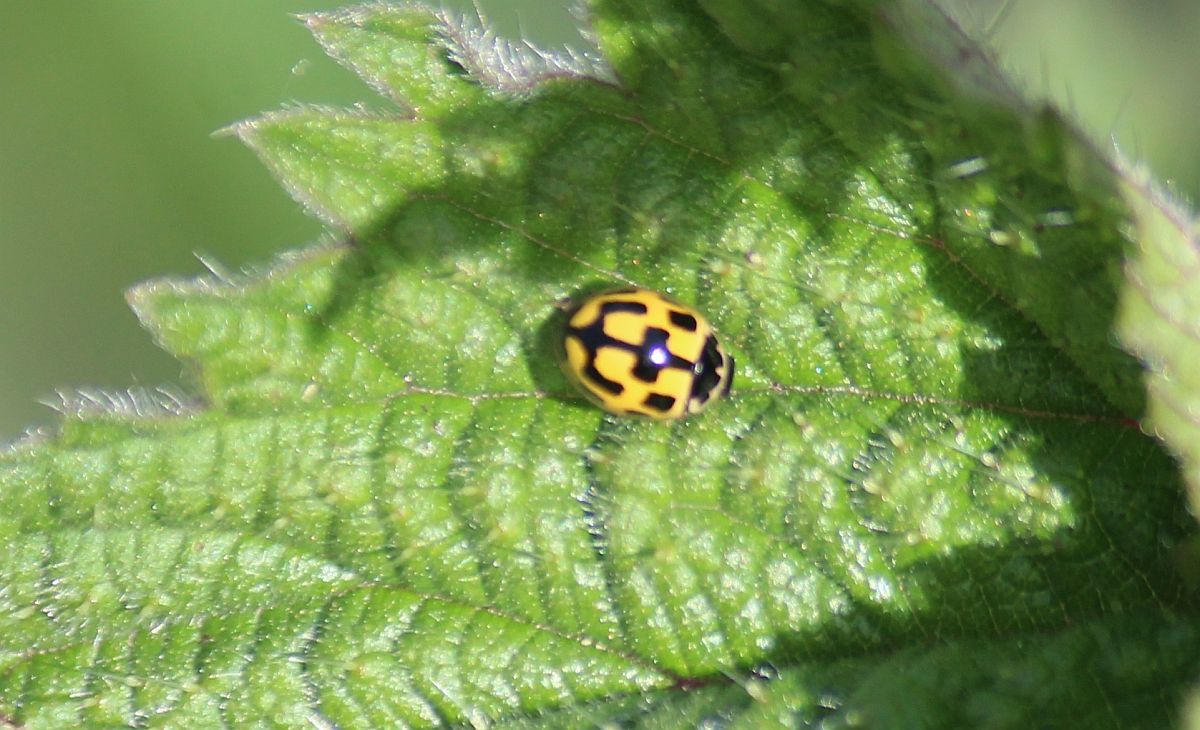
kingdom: Animalia
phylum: Arthropoda
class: Insecta
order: Coleoptera
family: Coccinellidae
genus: Propylaea
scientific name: Propylaea quatuordecimpunctata
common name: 14-spotted ladybird beetle
